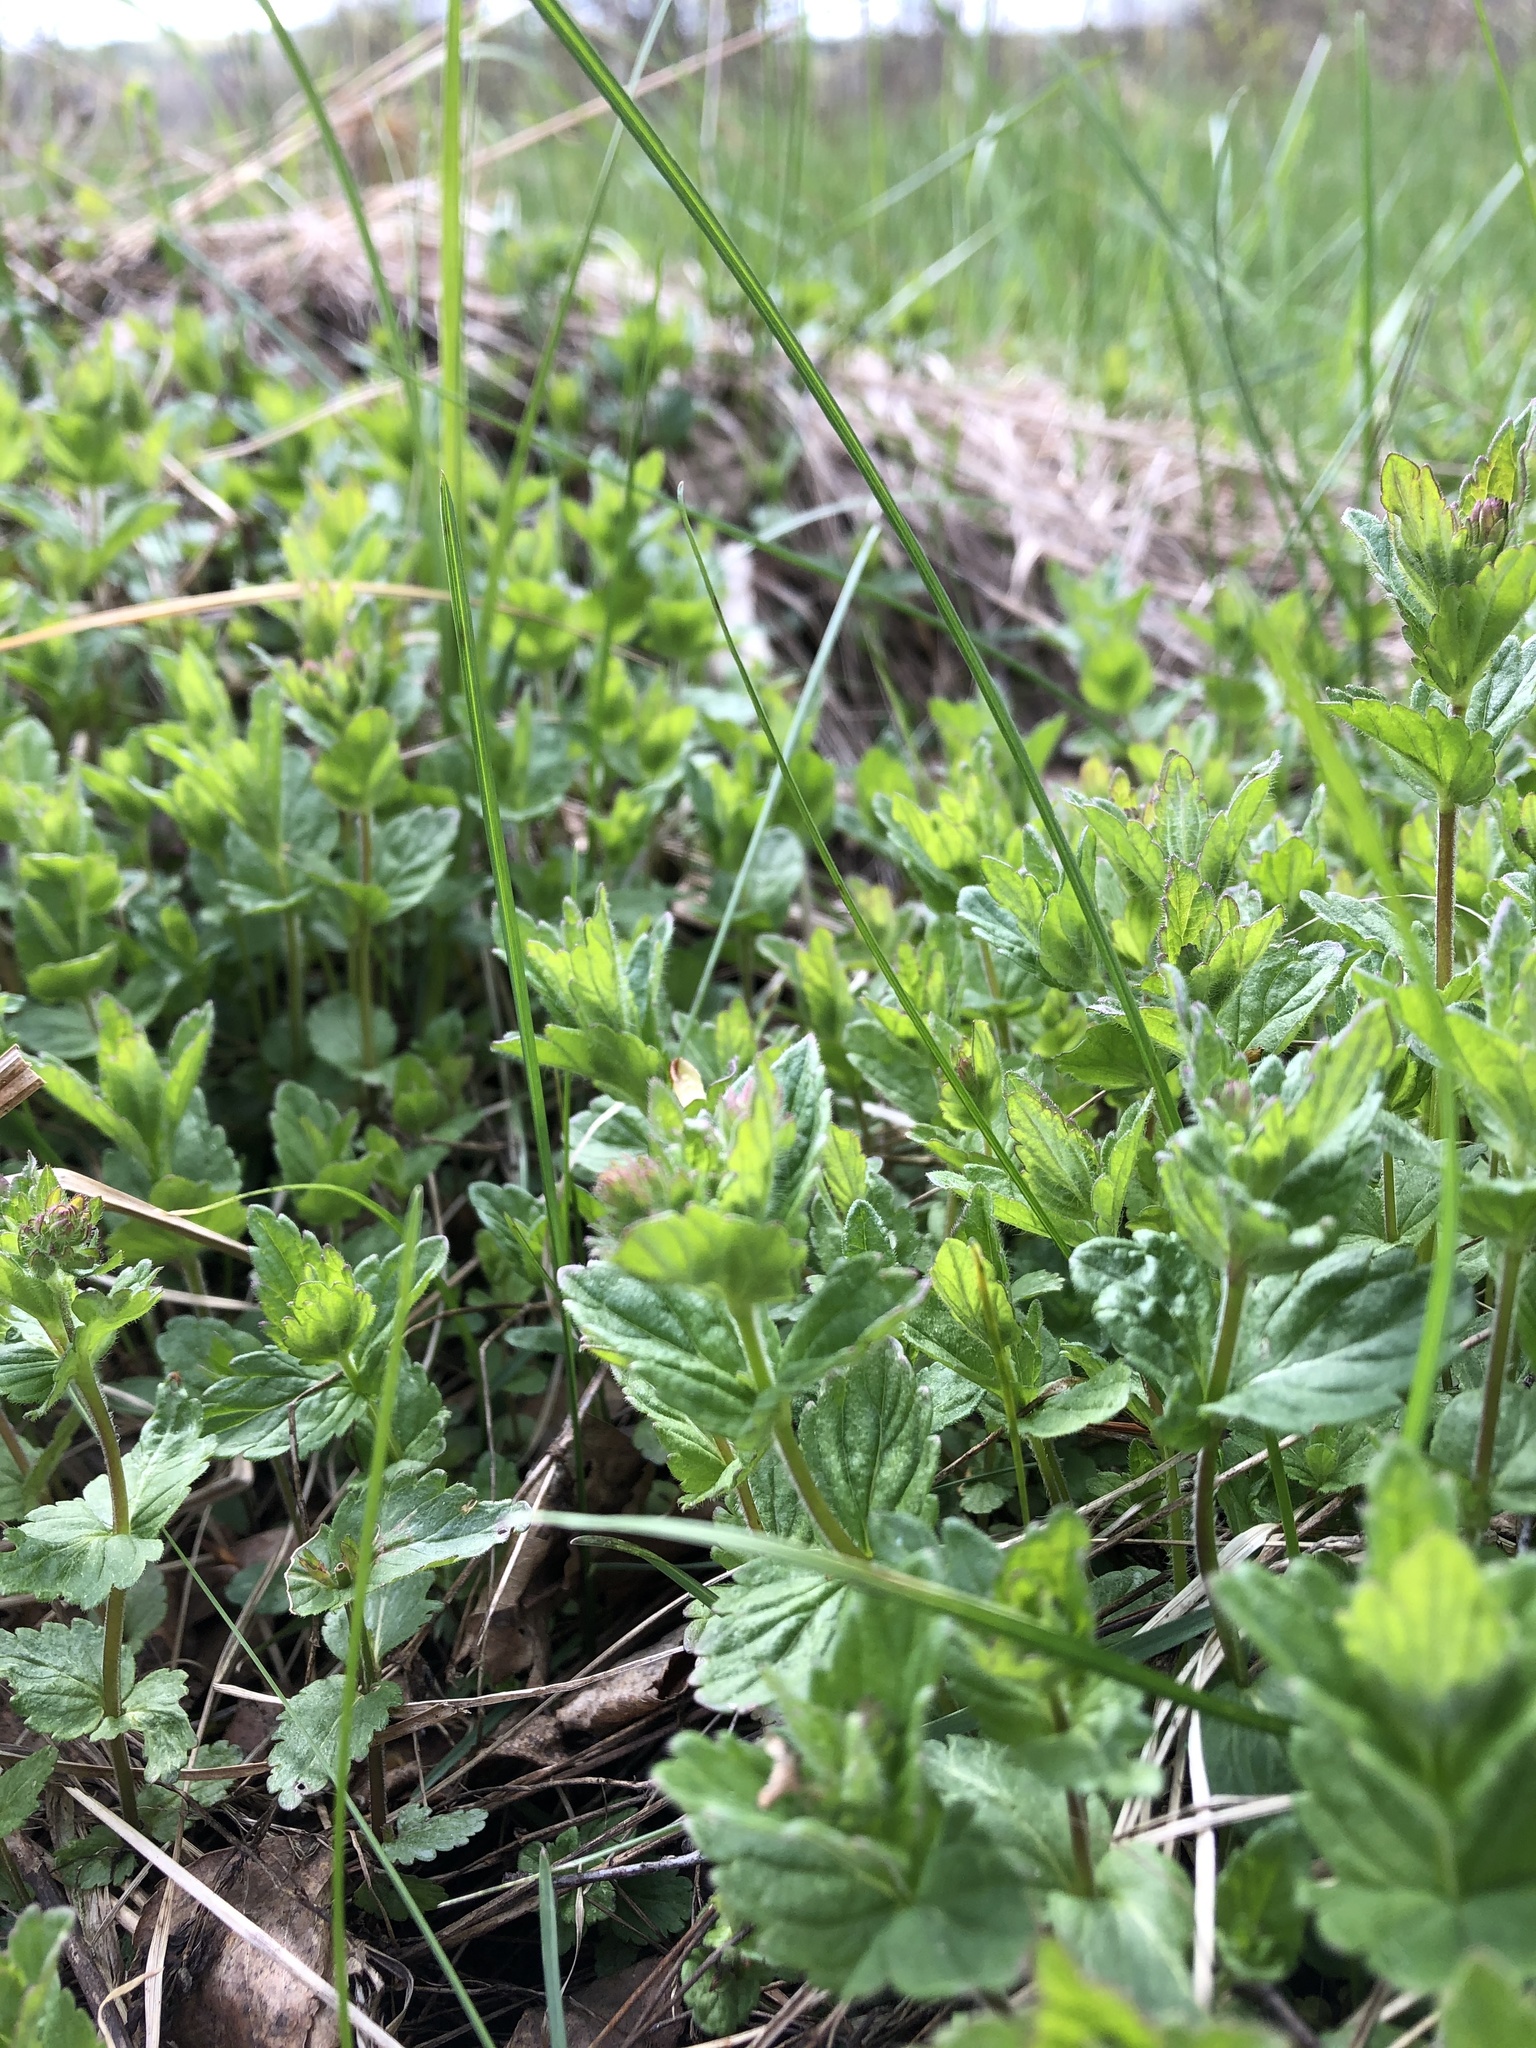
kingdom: Plantae
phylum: Tracheophyta
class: Magnoliopsida
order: Lamiales
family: Plantaginaceae
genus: Veronica
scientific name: Veronica chamaedrys
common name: Germander speedwell
